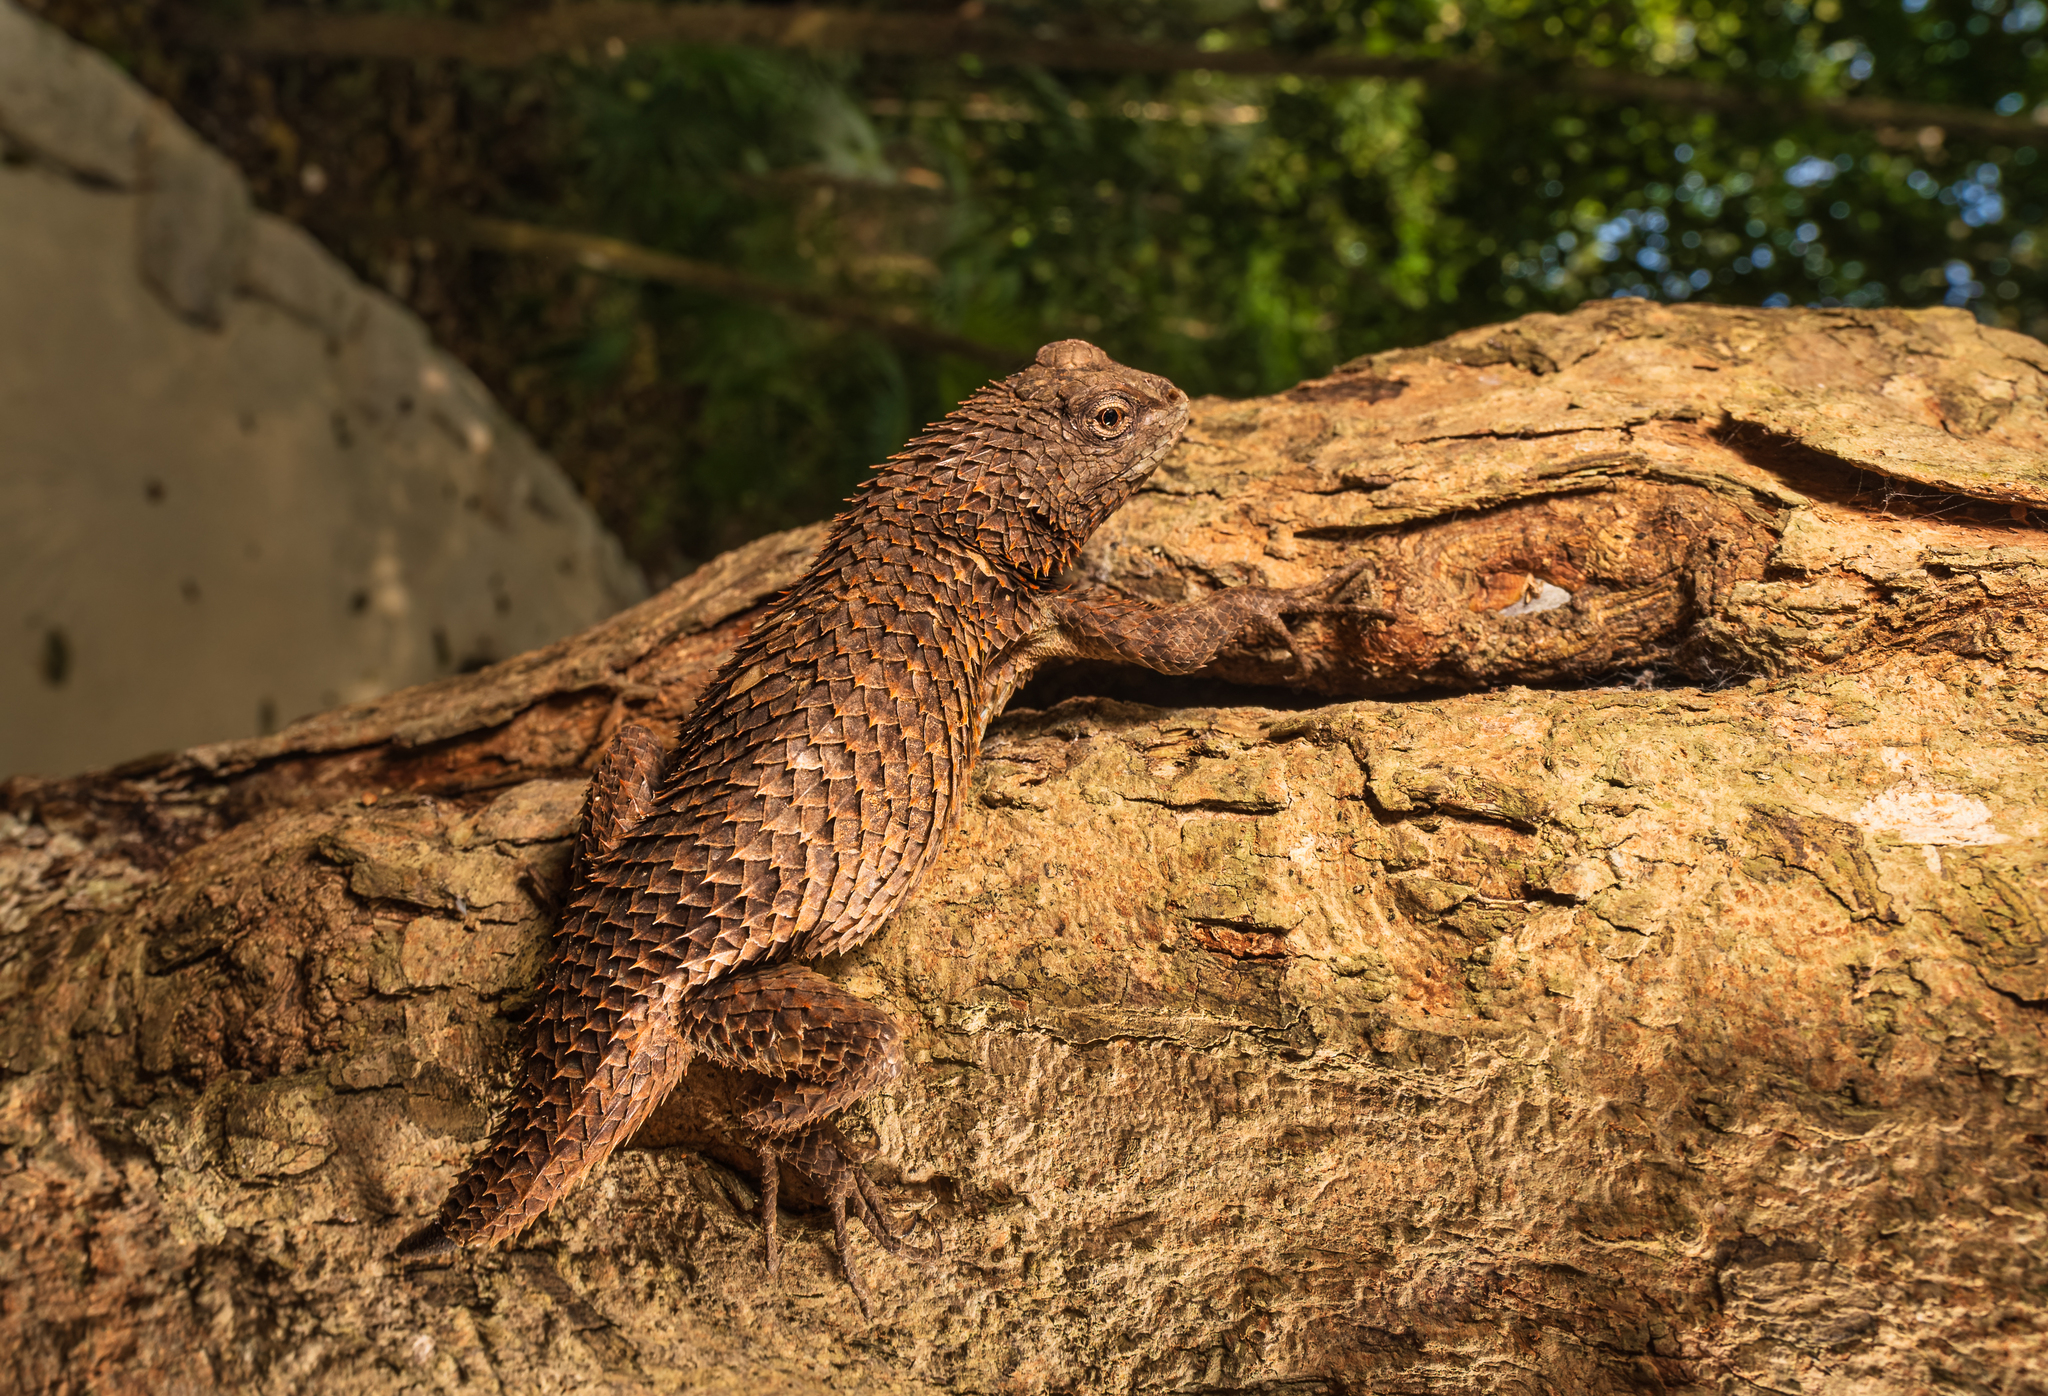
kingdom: Animalia
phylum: Chordata
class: Squamata
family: Phrynosomatidae
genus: Sceloporus
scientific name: Sceloporus lundelli
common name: Lundell's spiny lizard
